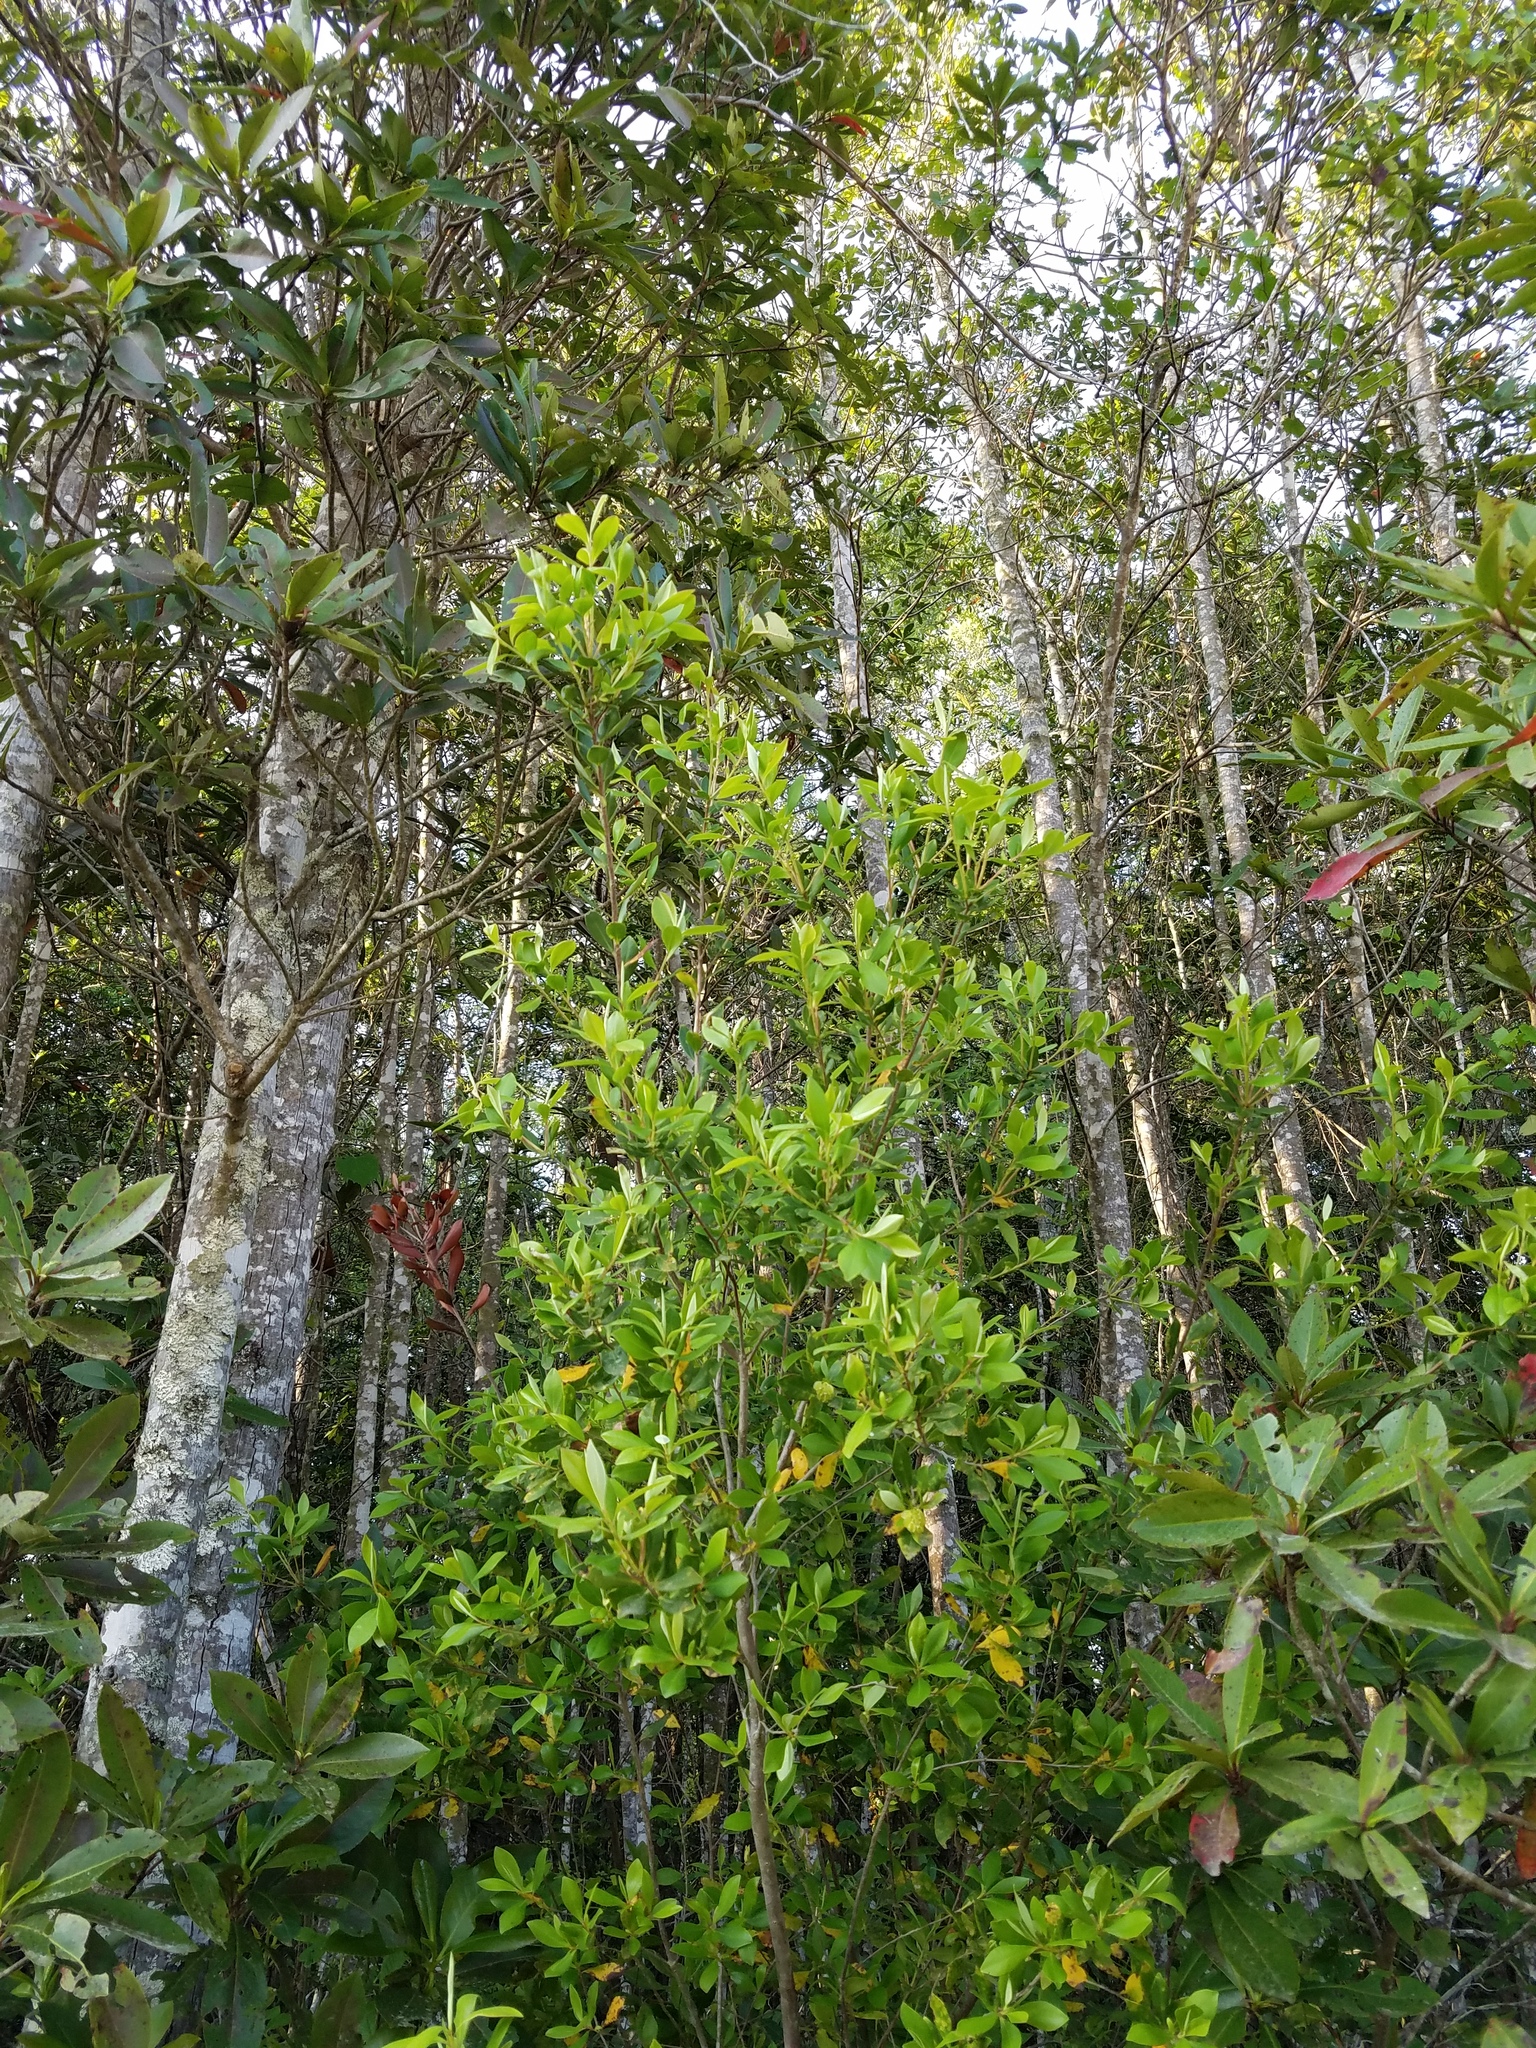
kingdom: Plantae
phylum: Tracheophyta
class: Magnoliopsida
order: Ericales
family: Cyrillaceae
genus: Cliftonia
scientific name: Cliftonia monophylla
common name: Titi
